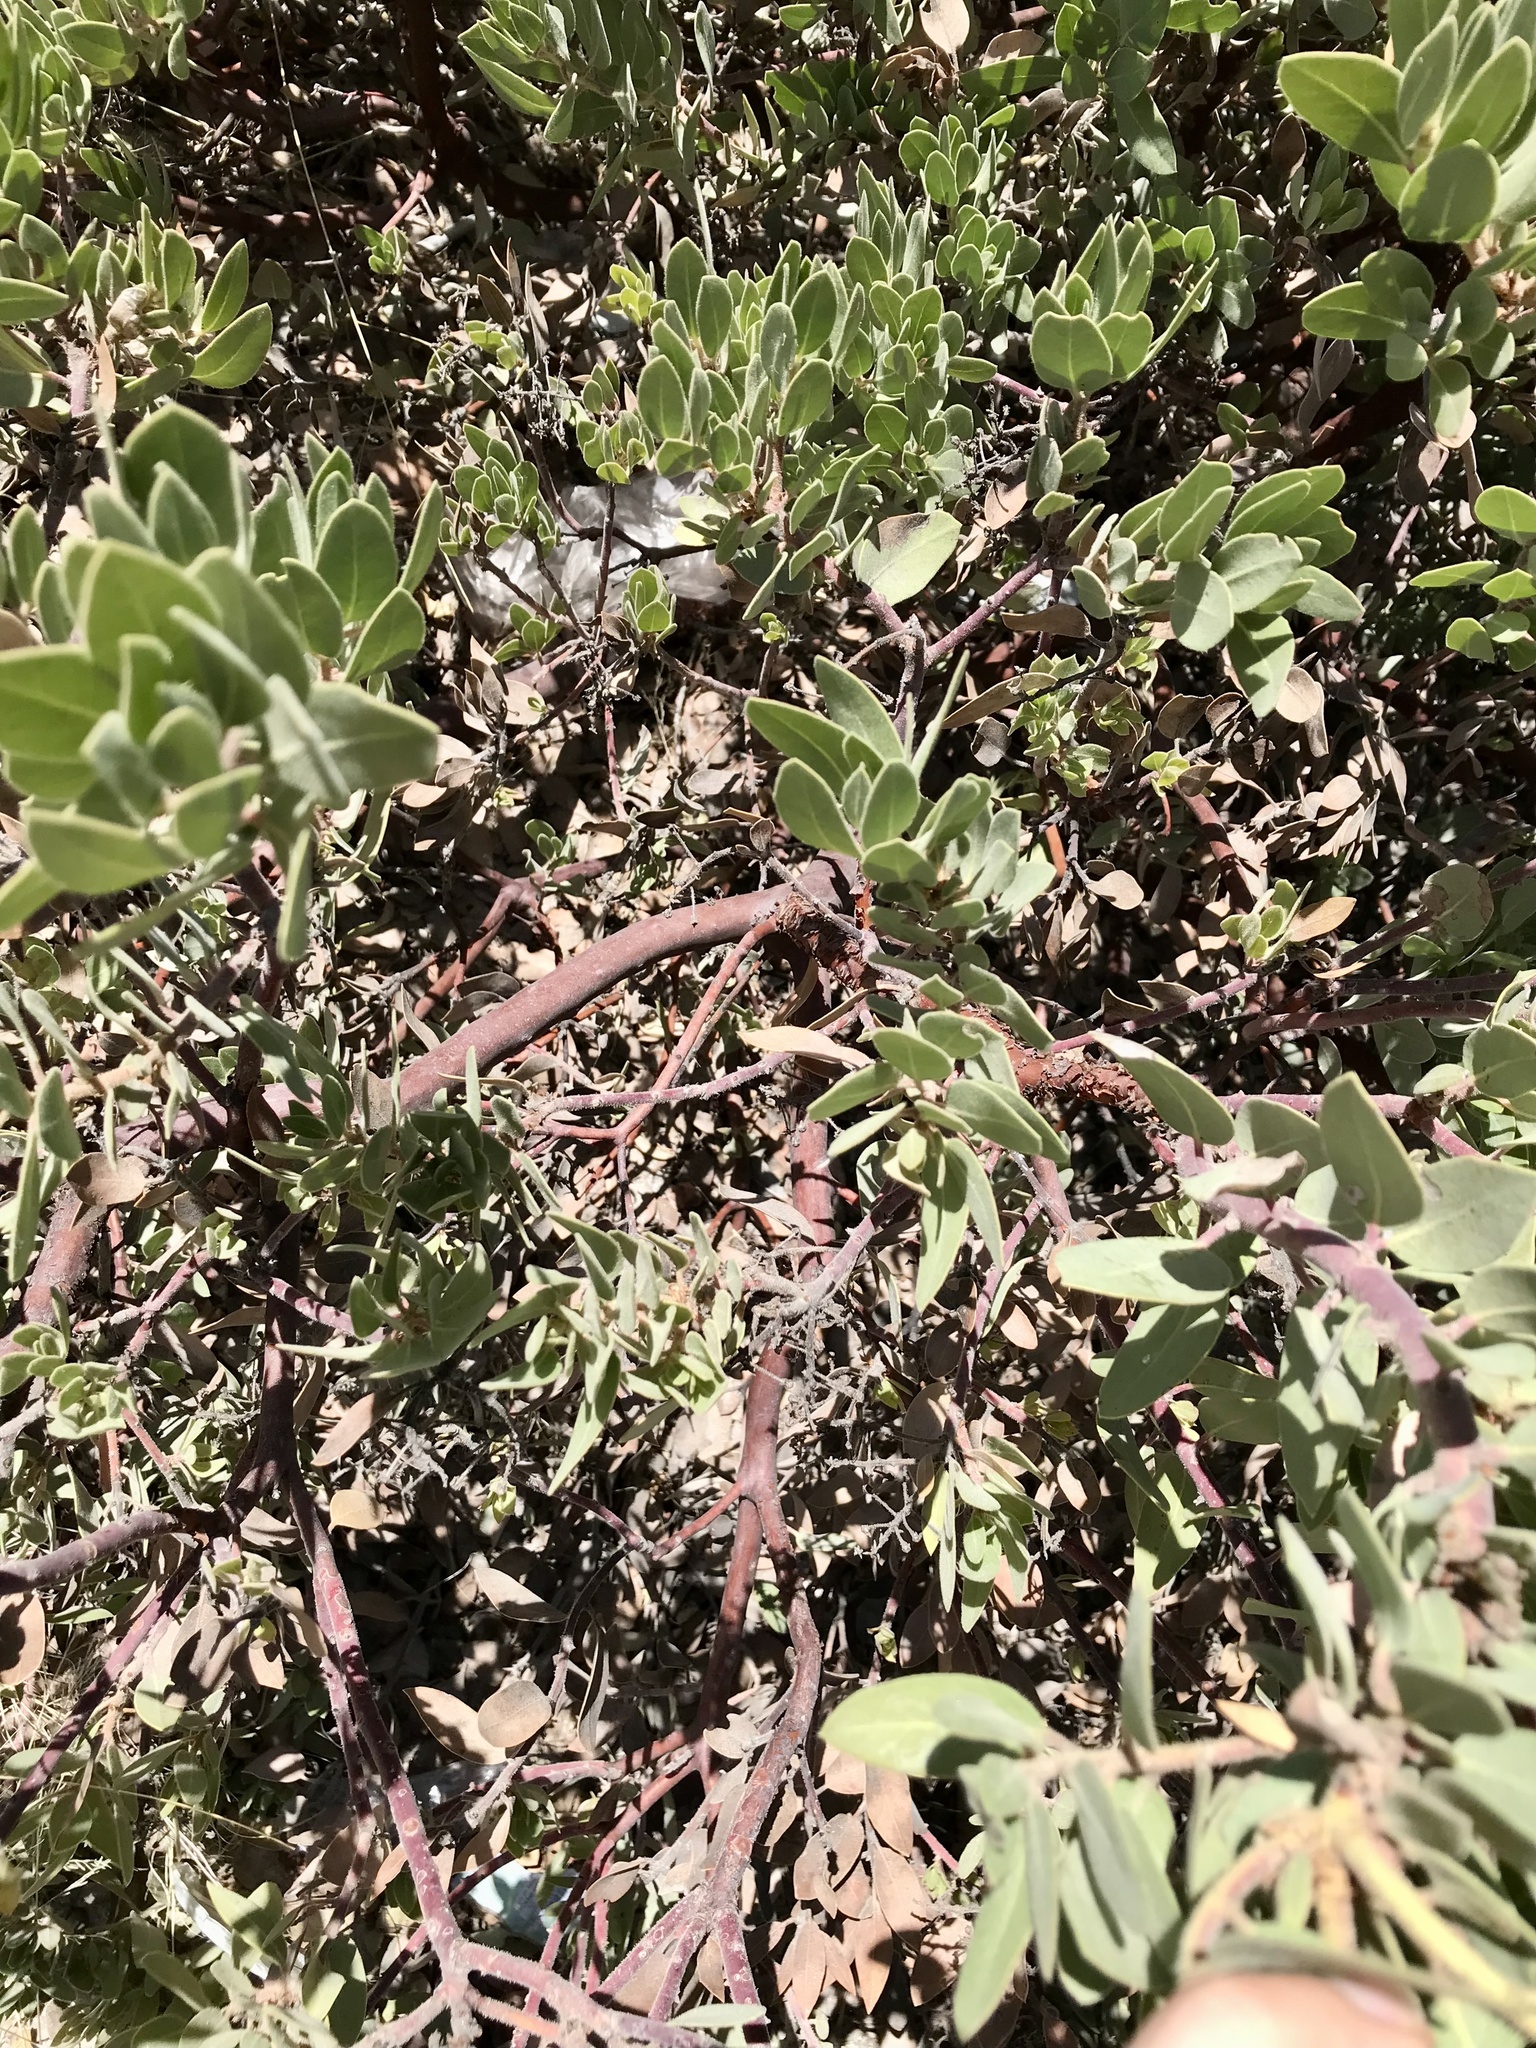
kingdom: Plantae
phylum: Tracheophyta
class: Magnoliopsida
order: Ericales
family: Ericaceae
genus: Arctostaphylos
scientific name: Arctostaphylos pringlei
